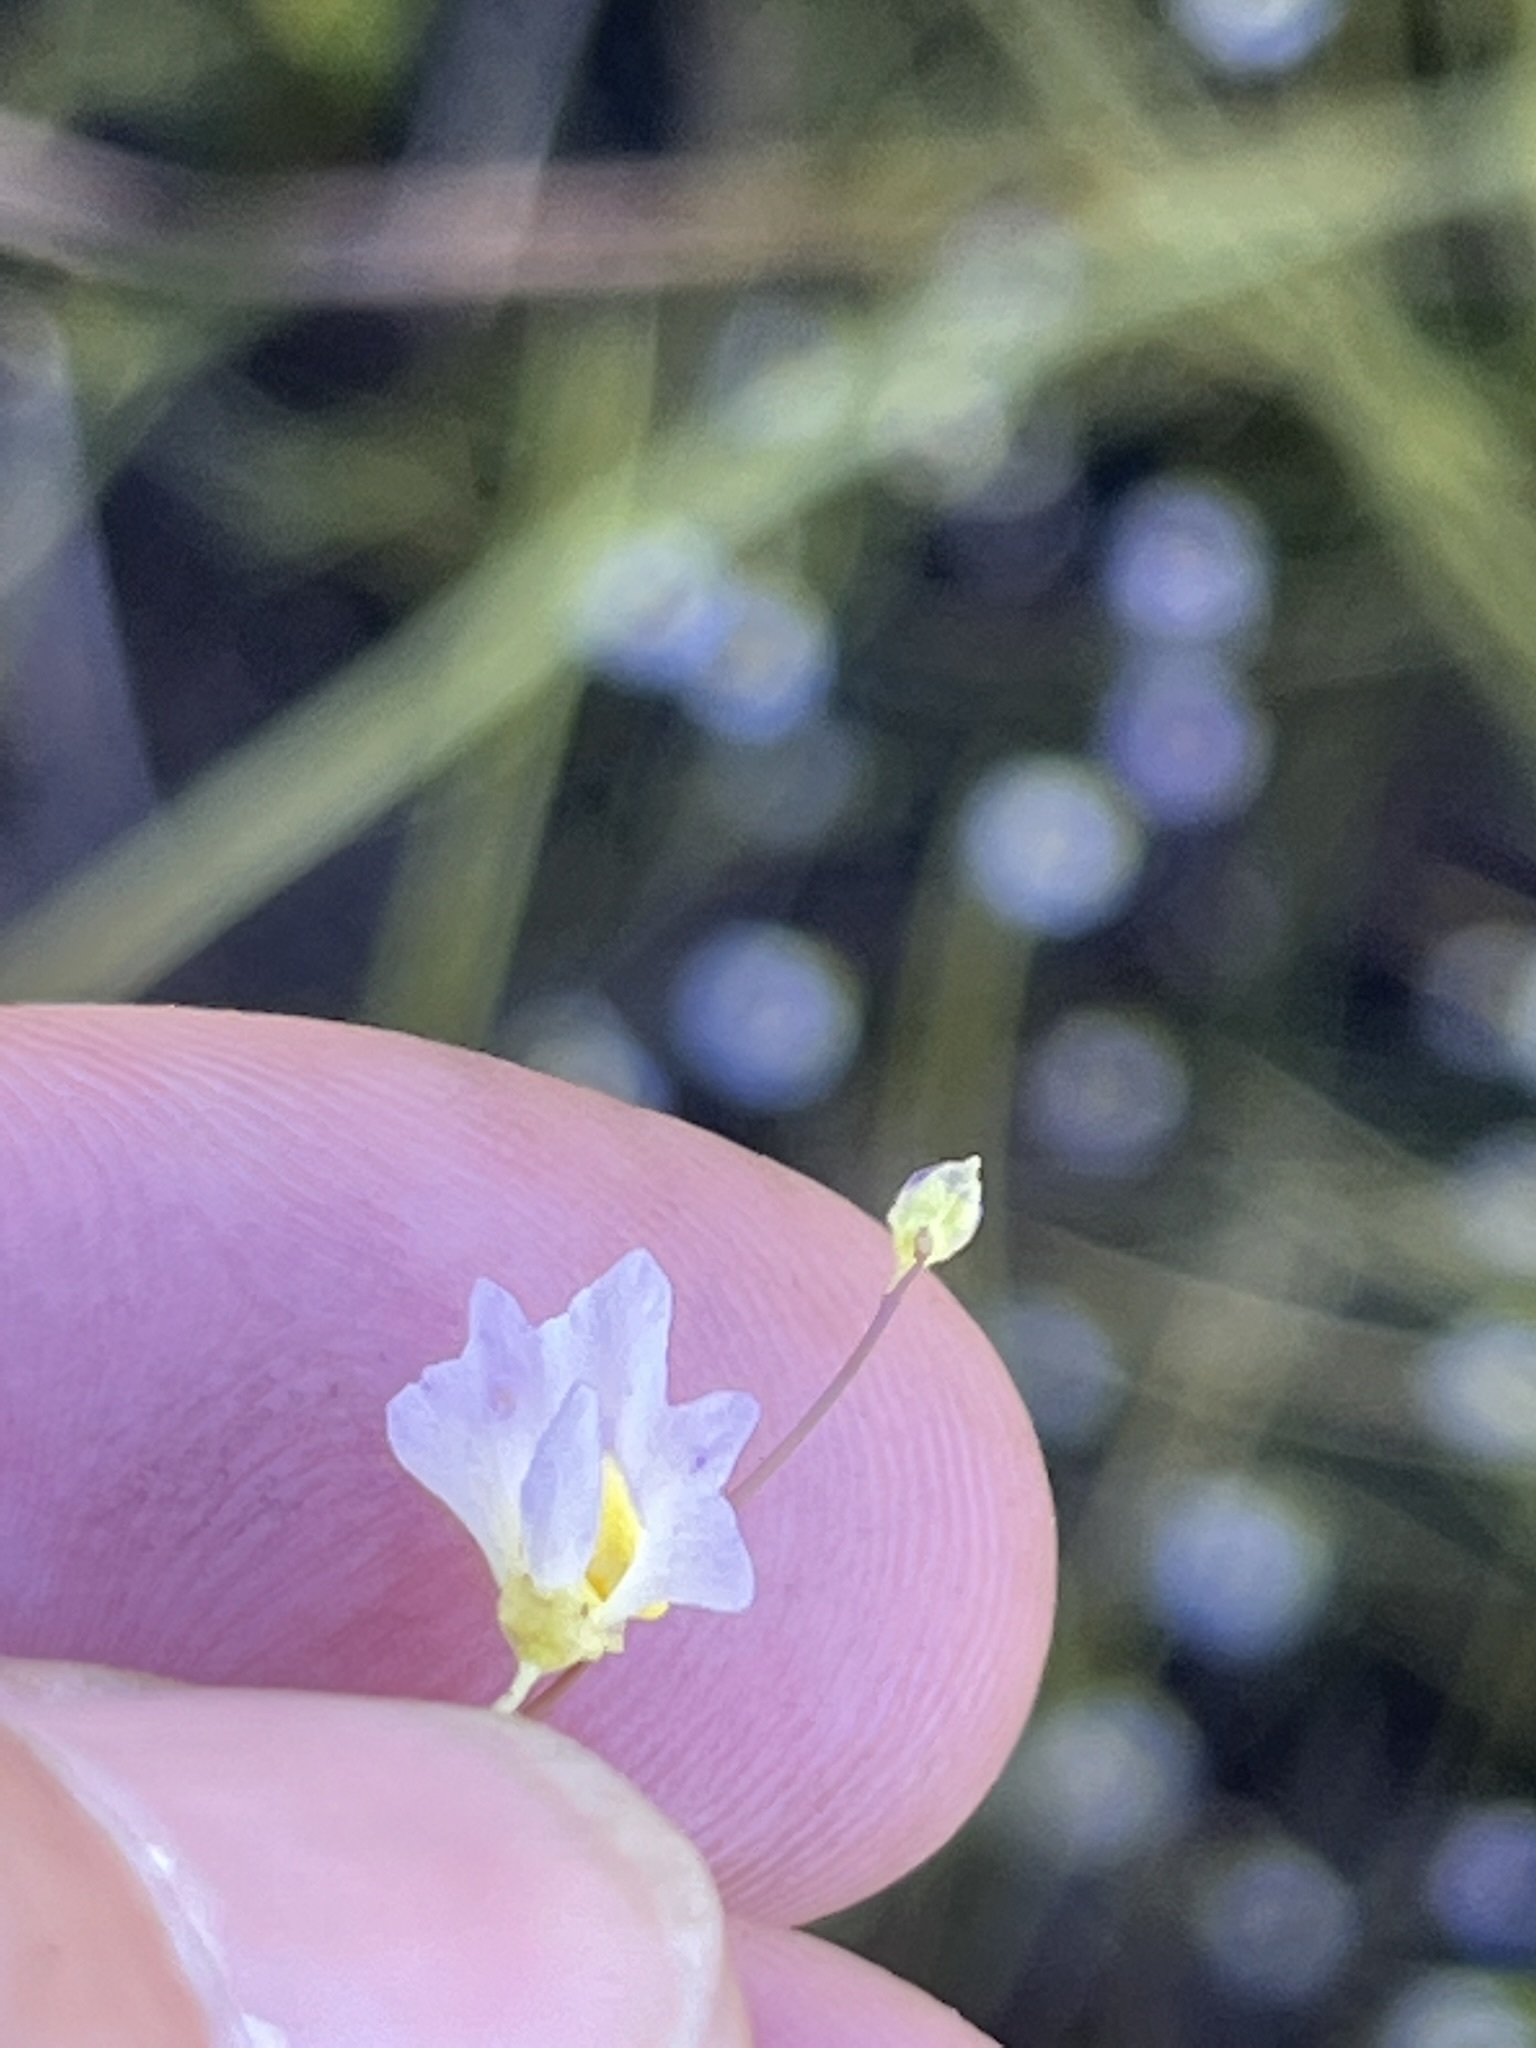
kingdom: Plantae
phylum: Tracheophyta
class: Magnoliopsida
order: Lamiales
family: Lentibulariaceae
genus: Utricularia
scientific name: Utricularia bisquamata
